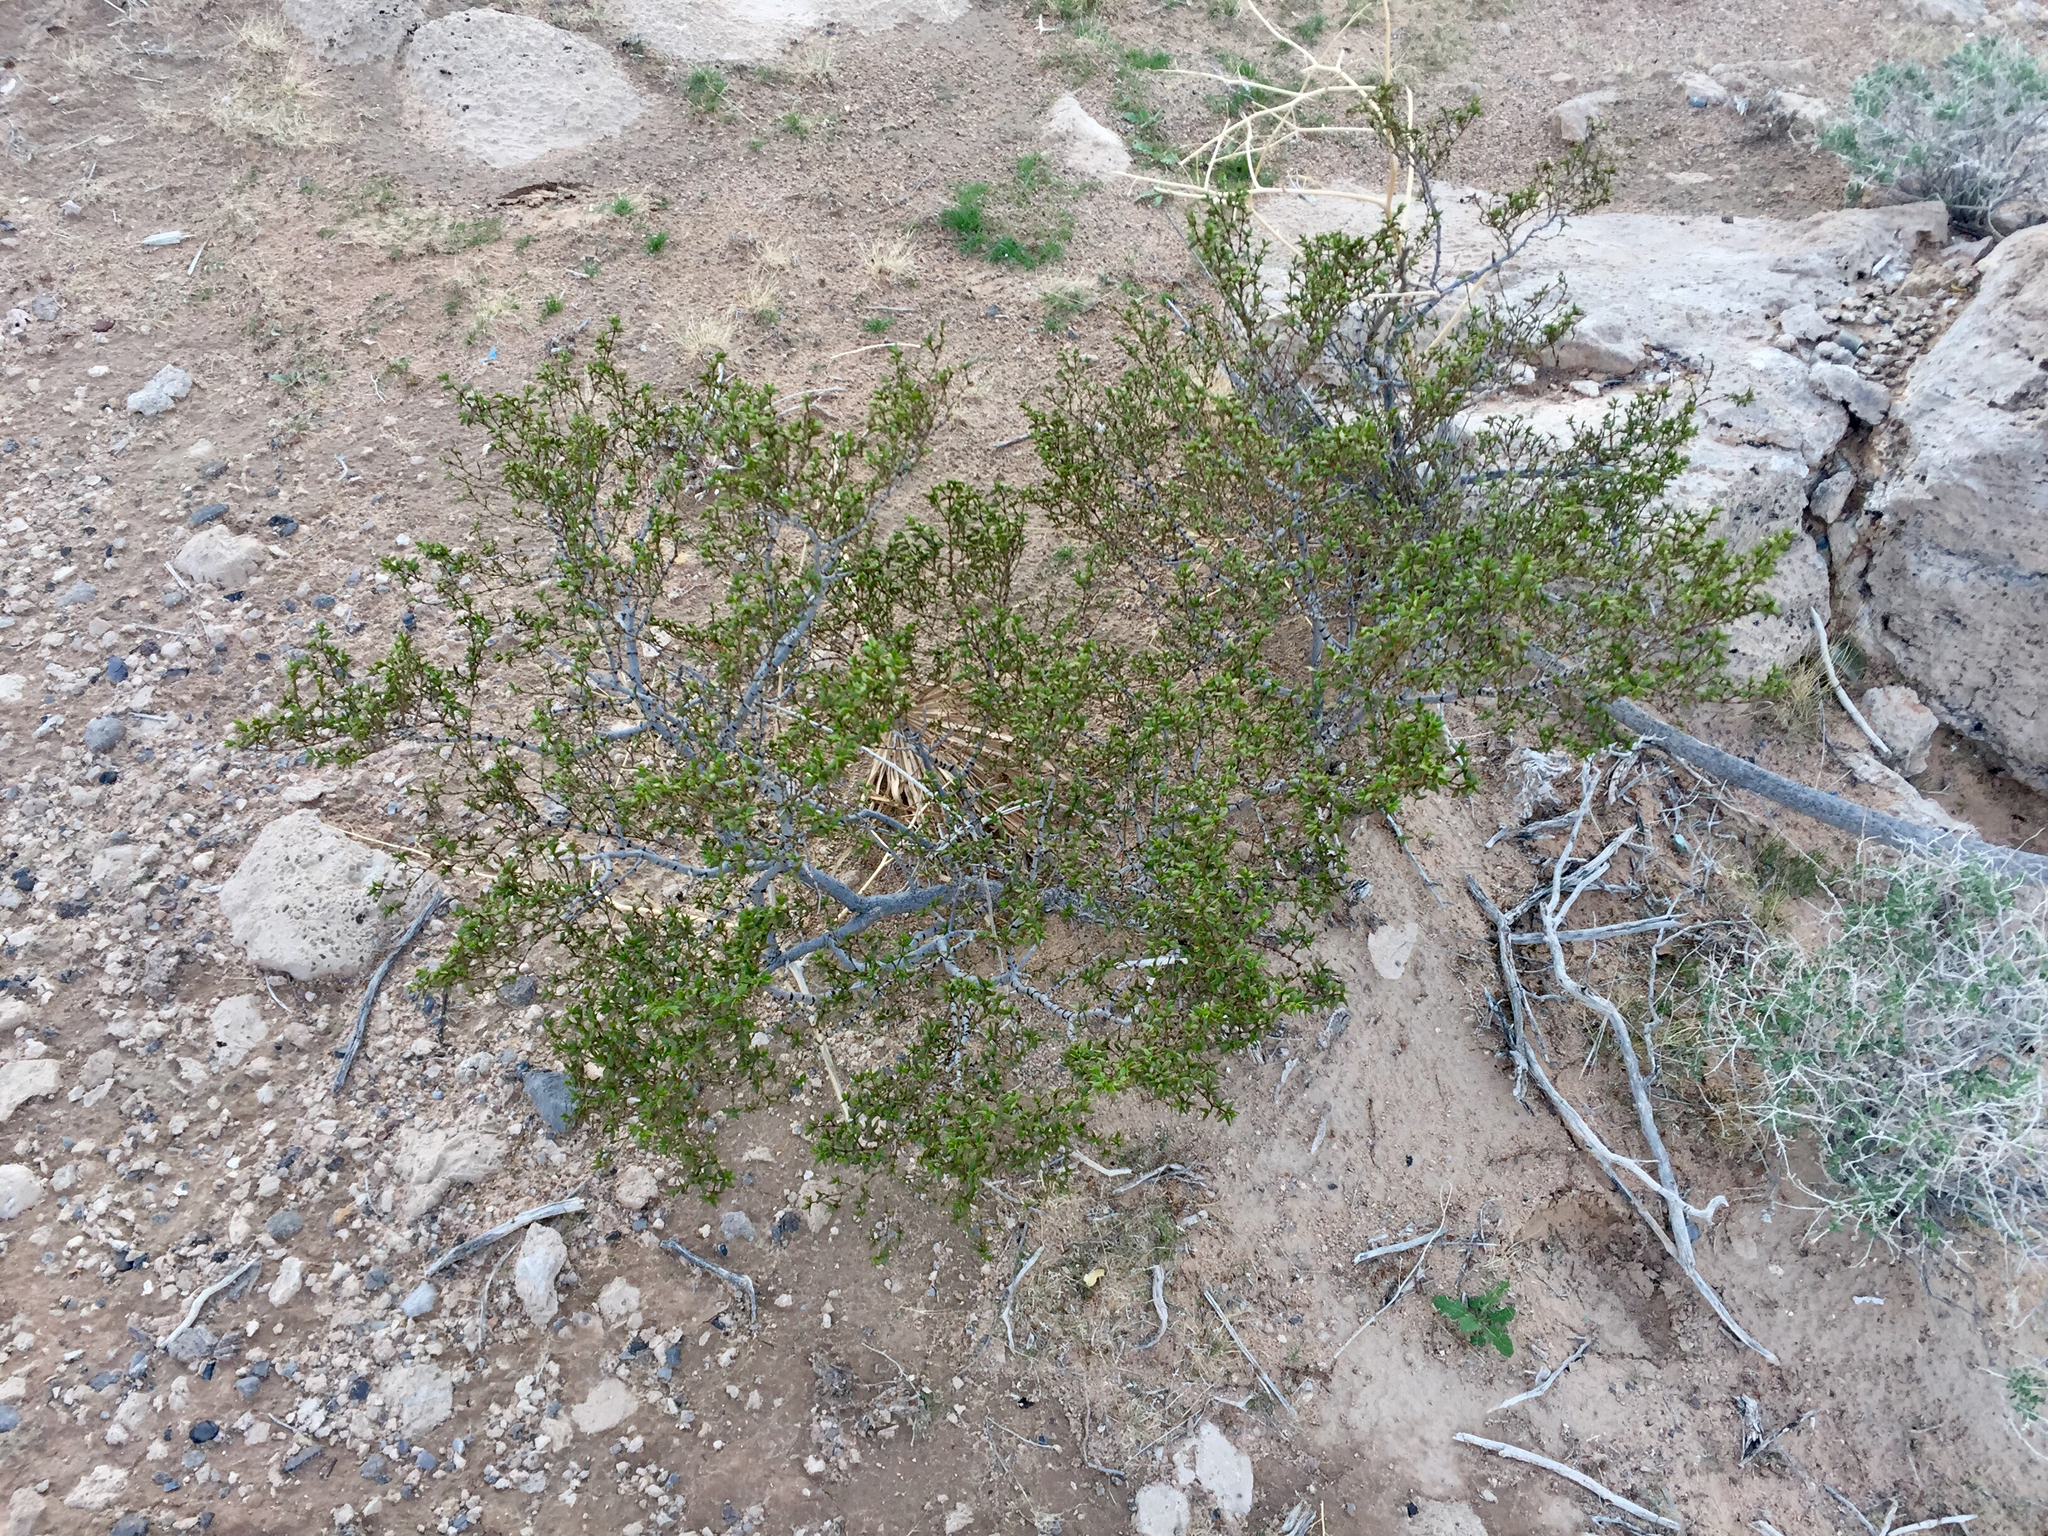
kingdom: Plantae
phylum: Tracheophyta
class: Magnoliopsida
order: Zygophyllales
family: Zygophyllaceae
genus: Larrea
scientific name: Larrea tridentata
